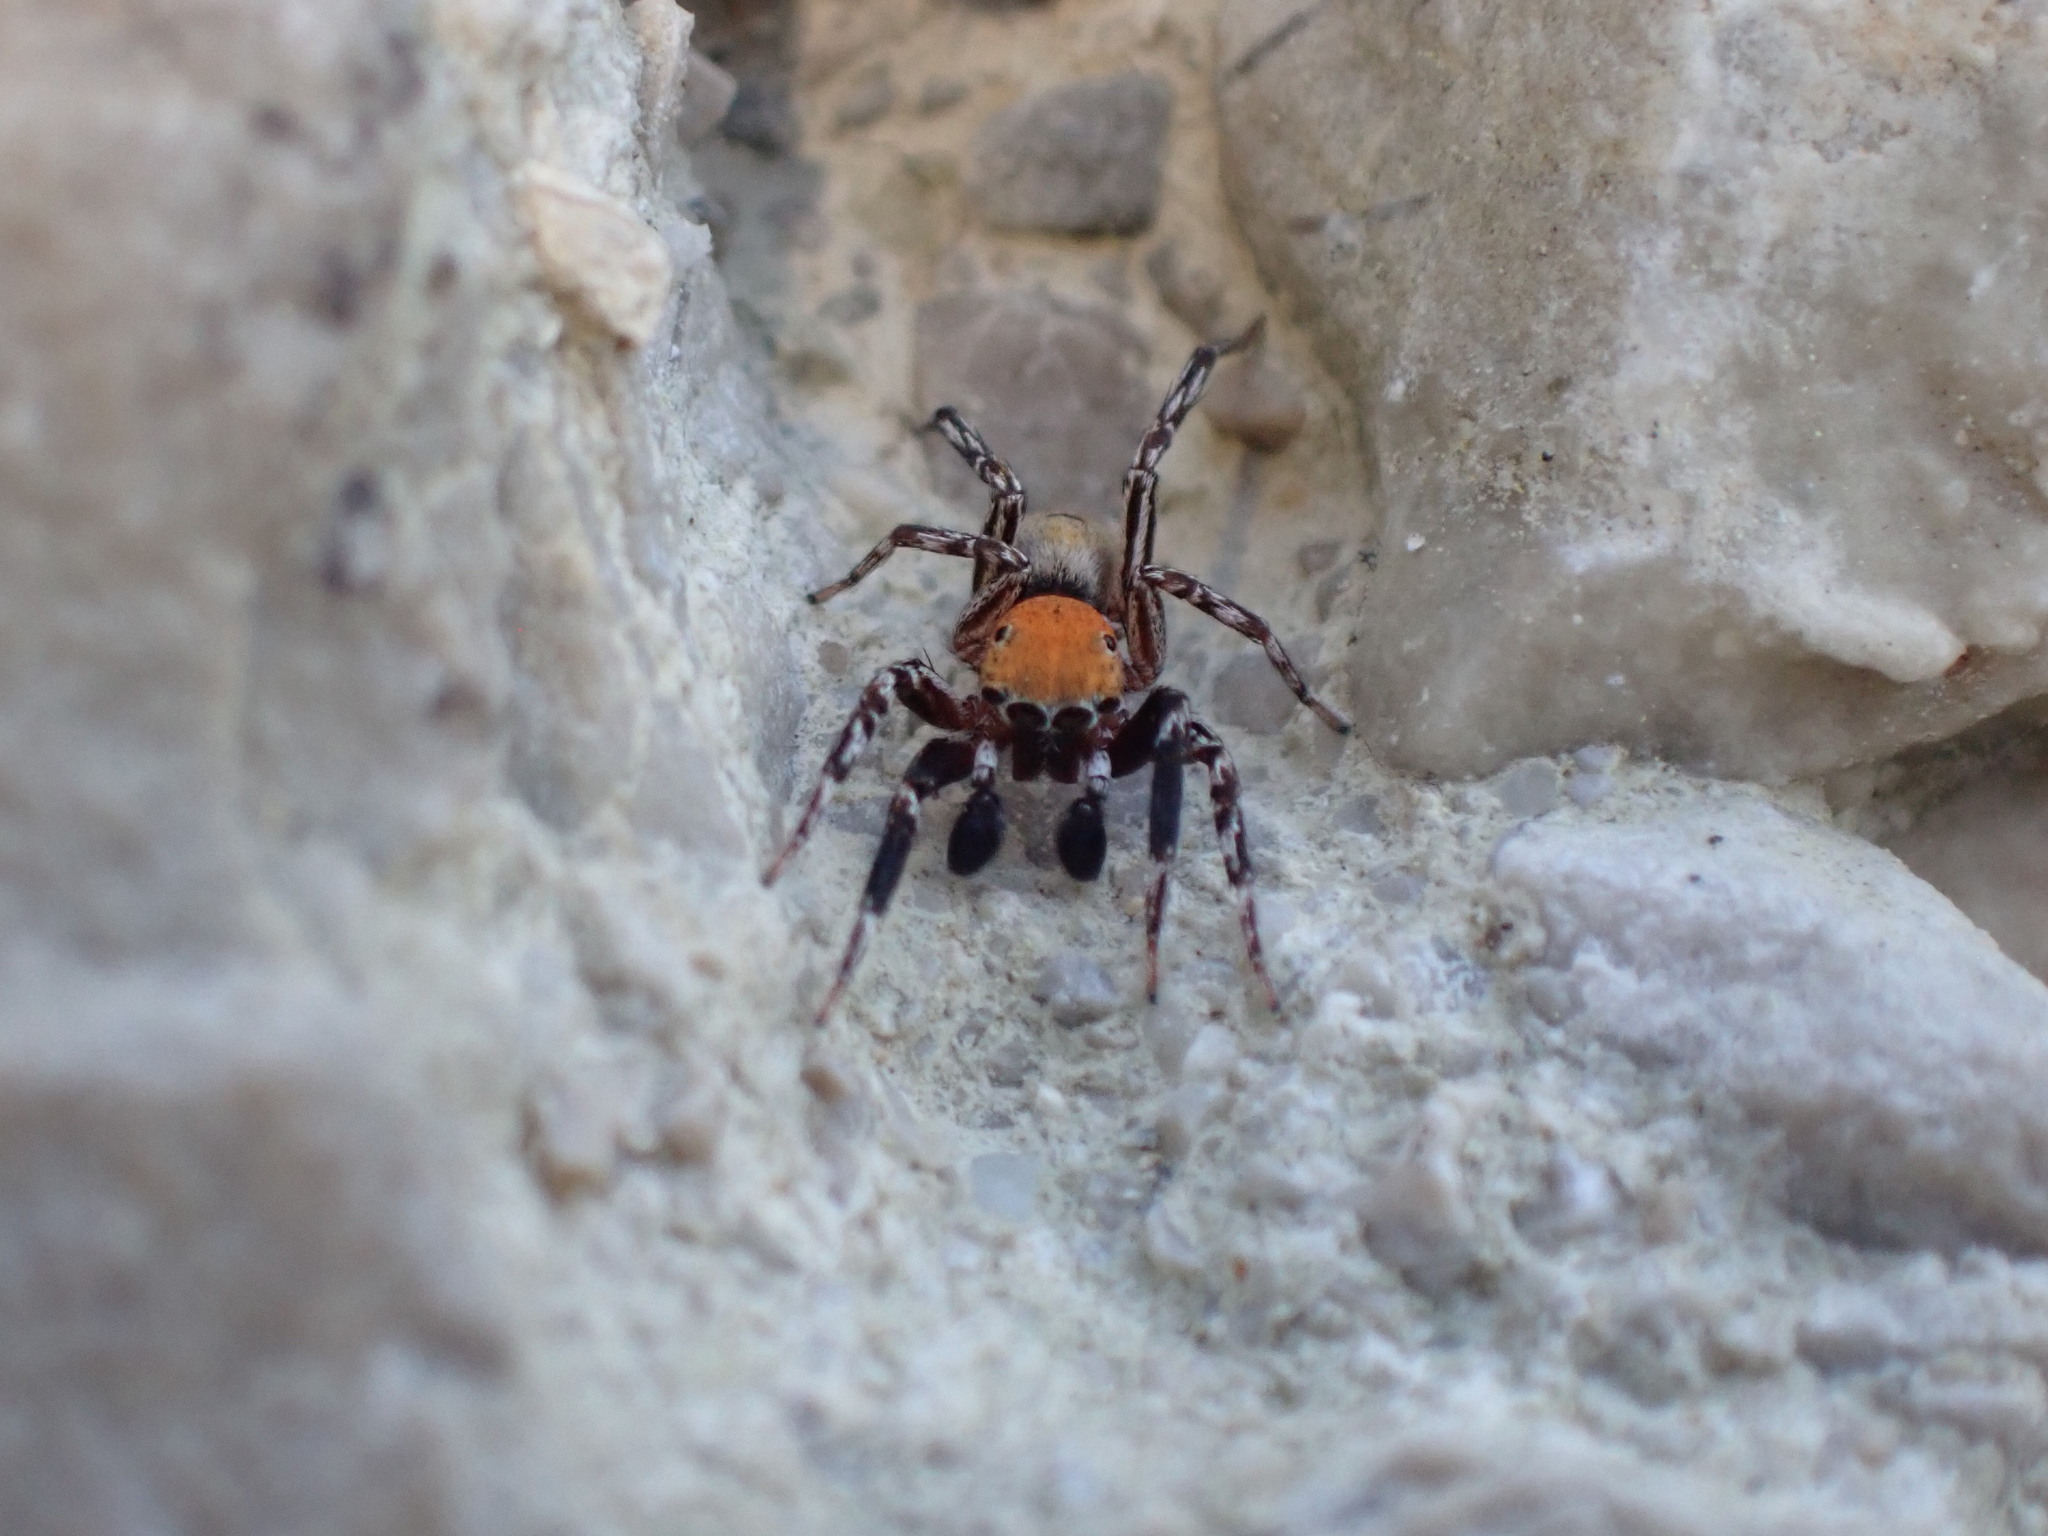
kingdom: Animalia
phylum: Arthropoda
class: Arachnida
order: Araneae
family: Salticidae
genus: Cyrba
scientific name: Cyrba algerina
